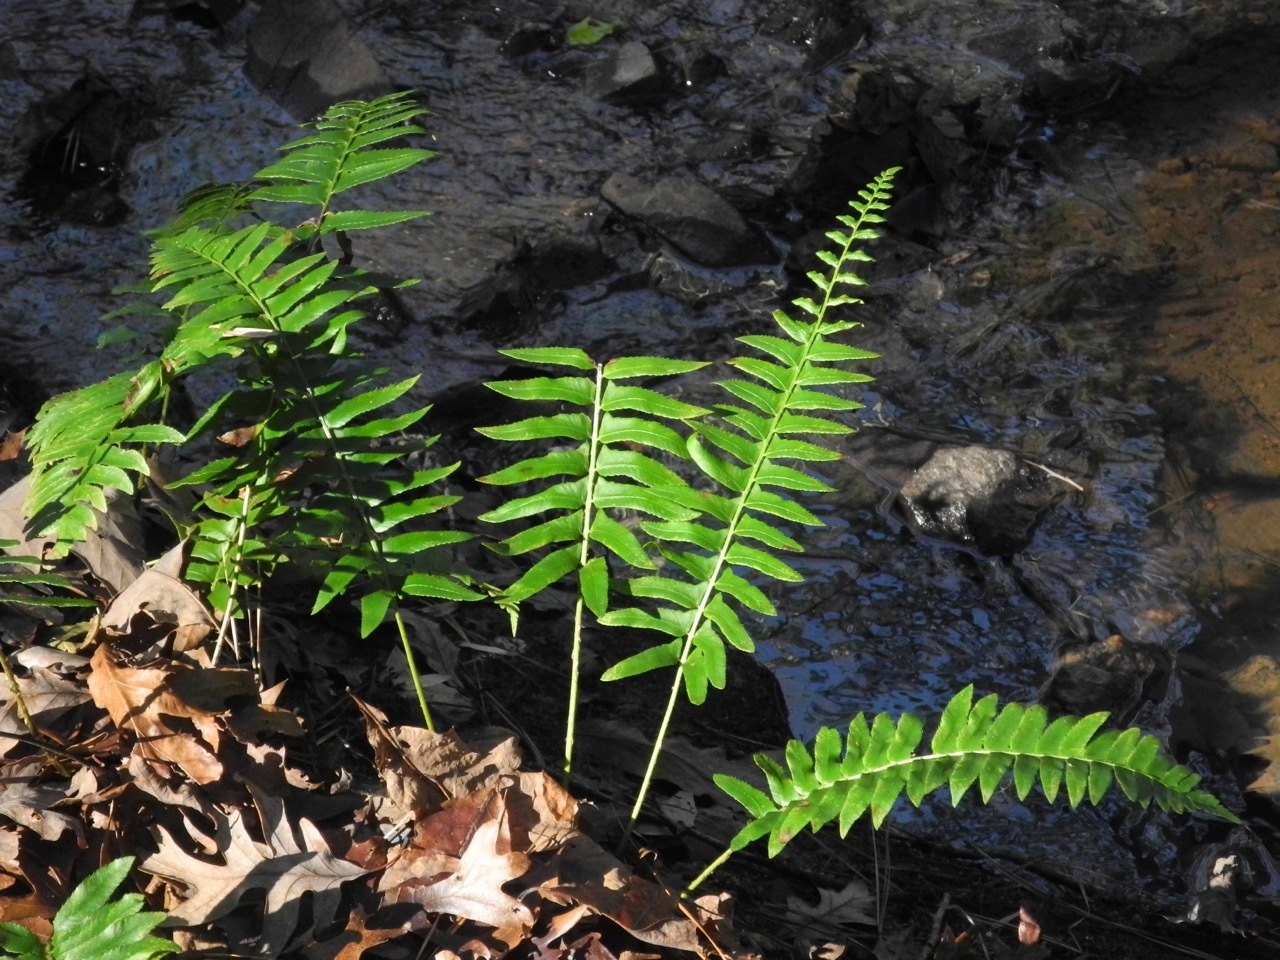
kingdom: Plantae
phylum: Tracheophyta
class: Polypodiopsida
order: Polypodiales
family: Dryopteridaceae
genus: Polystichum
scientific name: Polystichum acrostichoides
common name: Christmas fern
